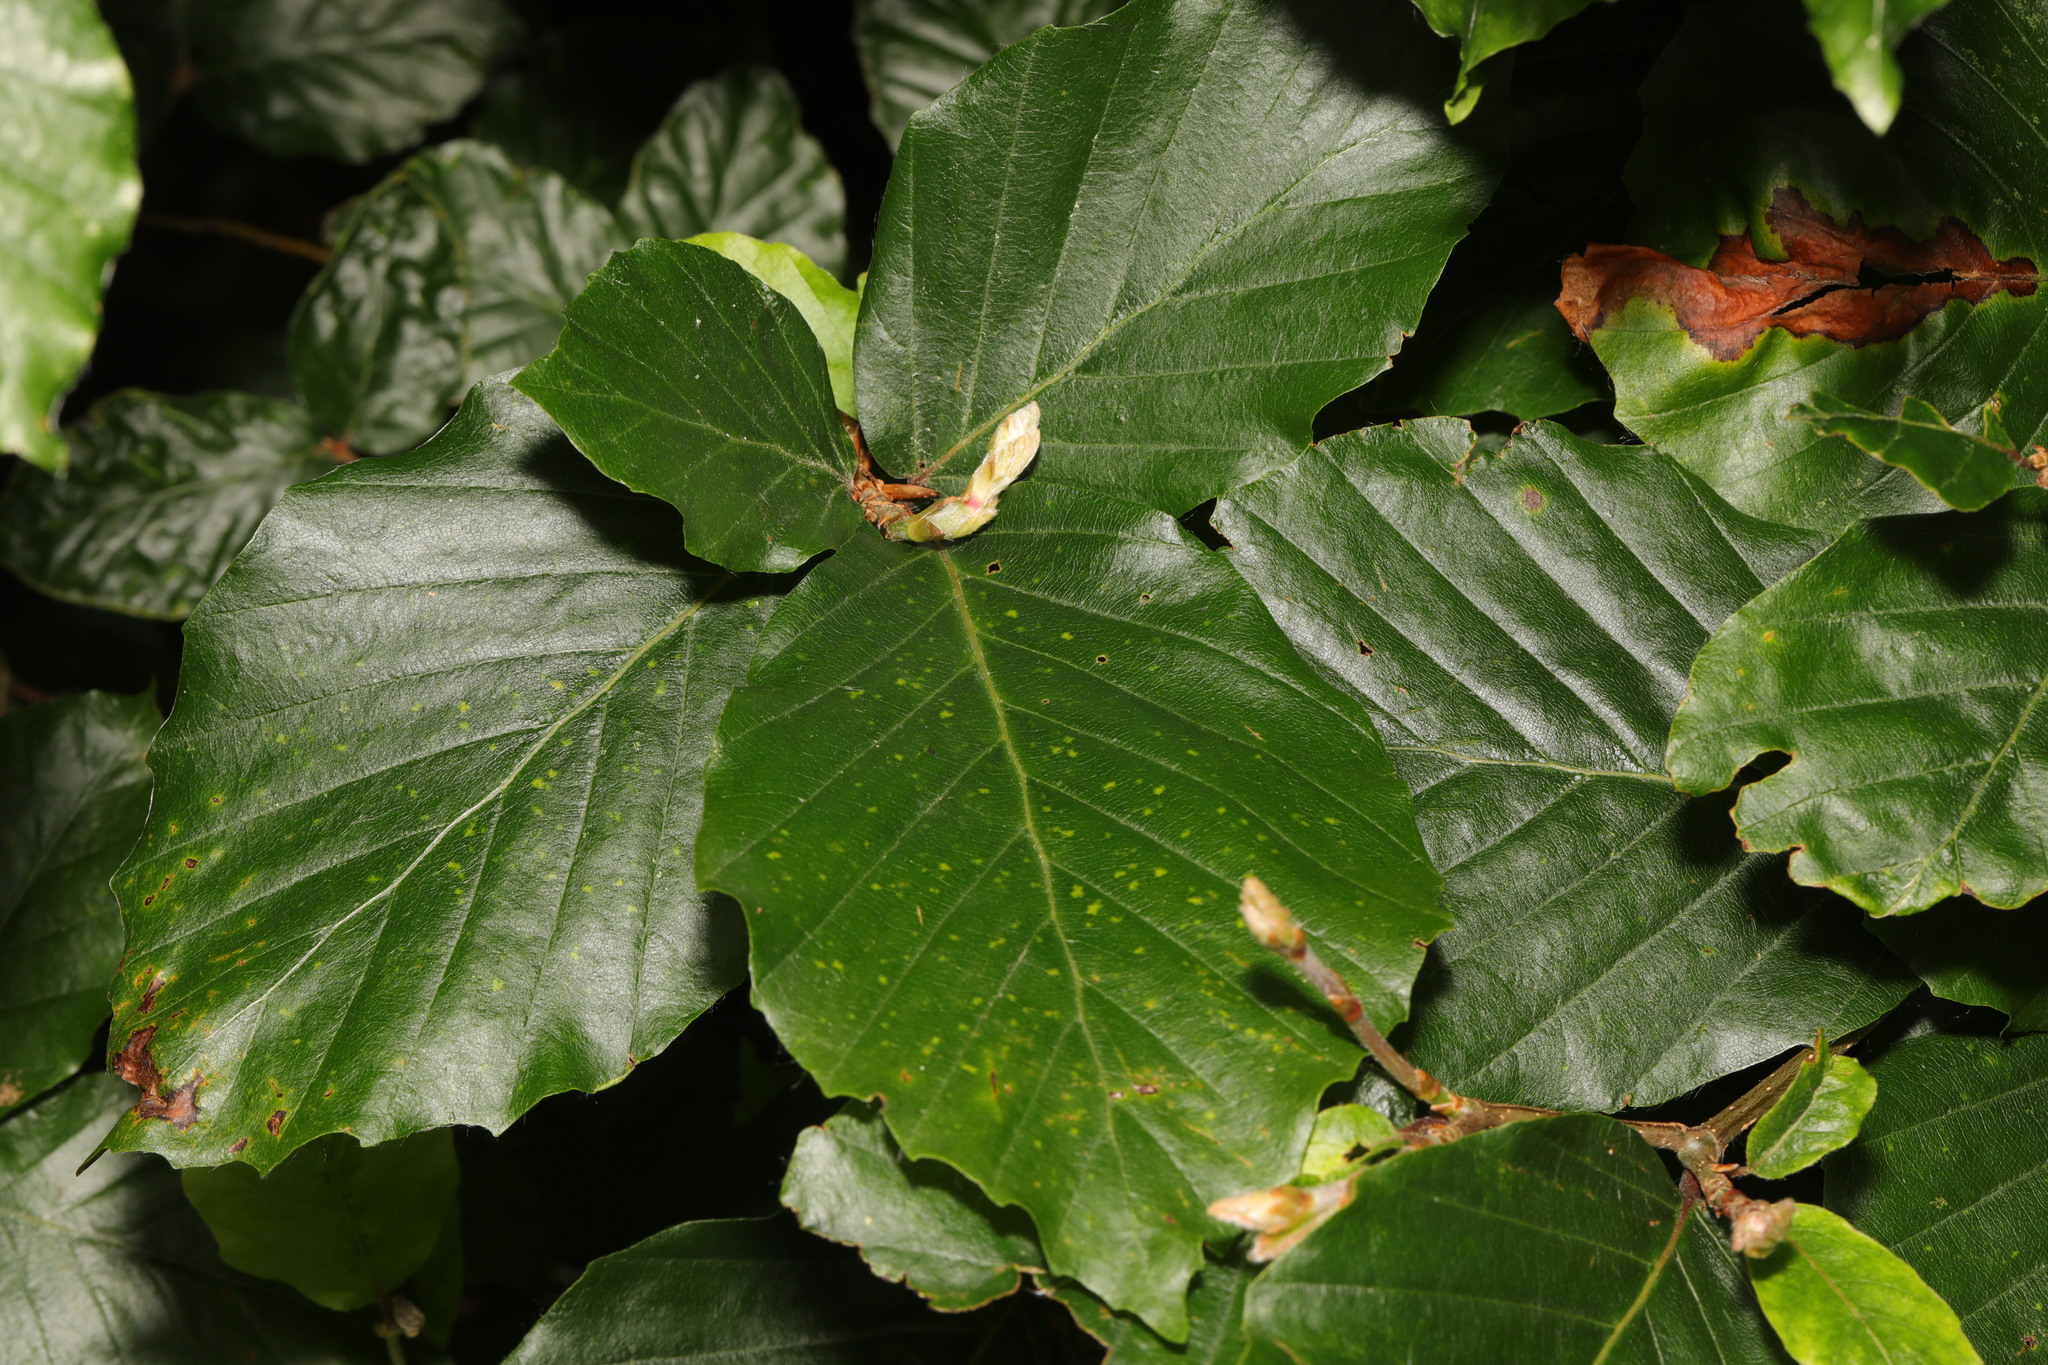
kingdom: Plantae
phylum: Tracheophyta
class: Magnoliopsida
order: Fagales
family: Fagaceae
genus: Fagus
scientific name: Fagus sylvatica
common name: Beech
